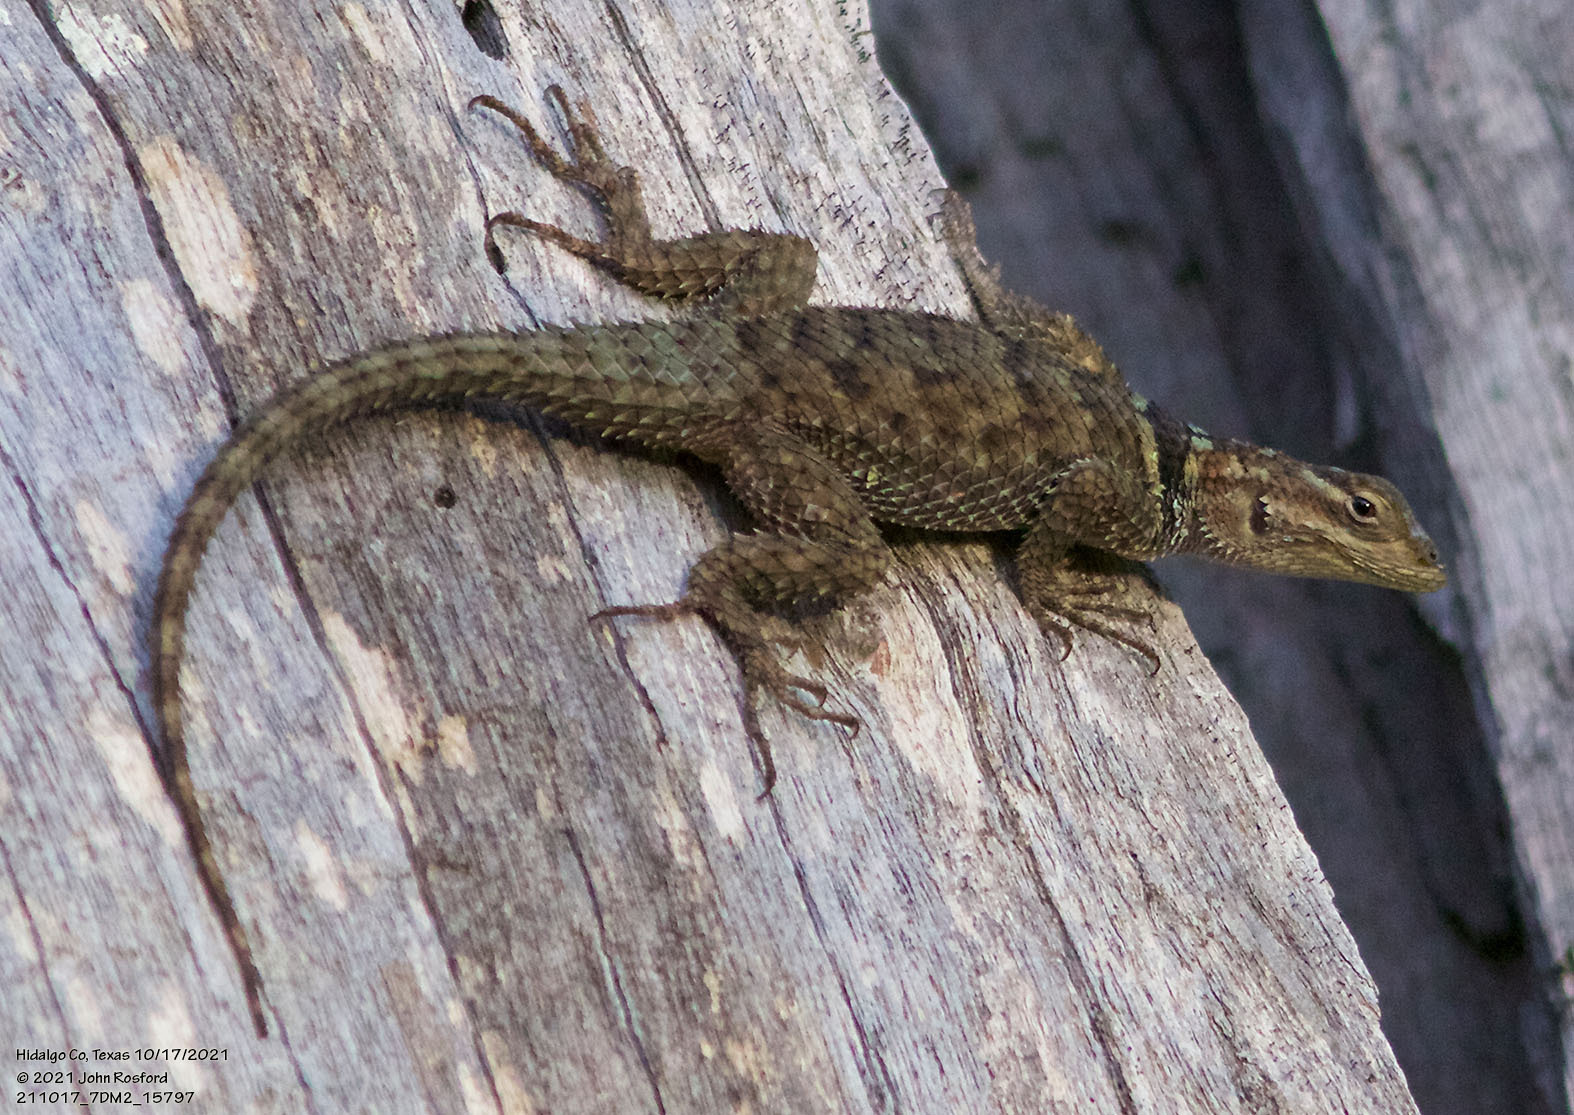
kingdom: Animalia
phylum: Chordata
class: Squamata
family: Phrynosomatidae
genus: Sceloporus
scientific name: Sceloporus cyanogenys
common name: Blue spiny lizard
